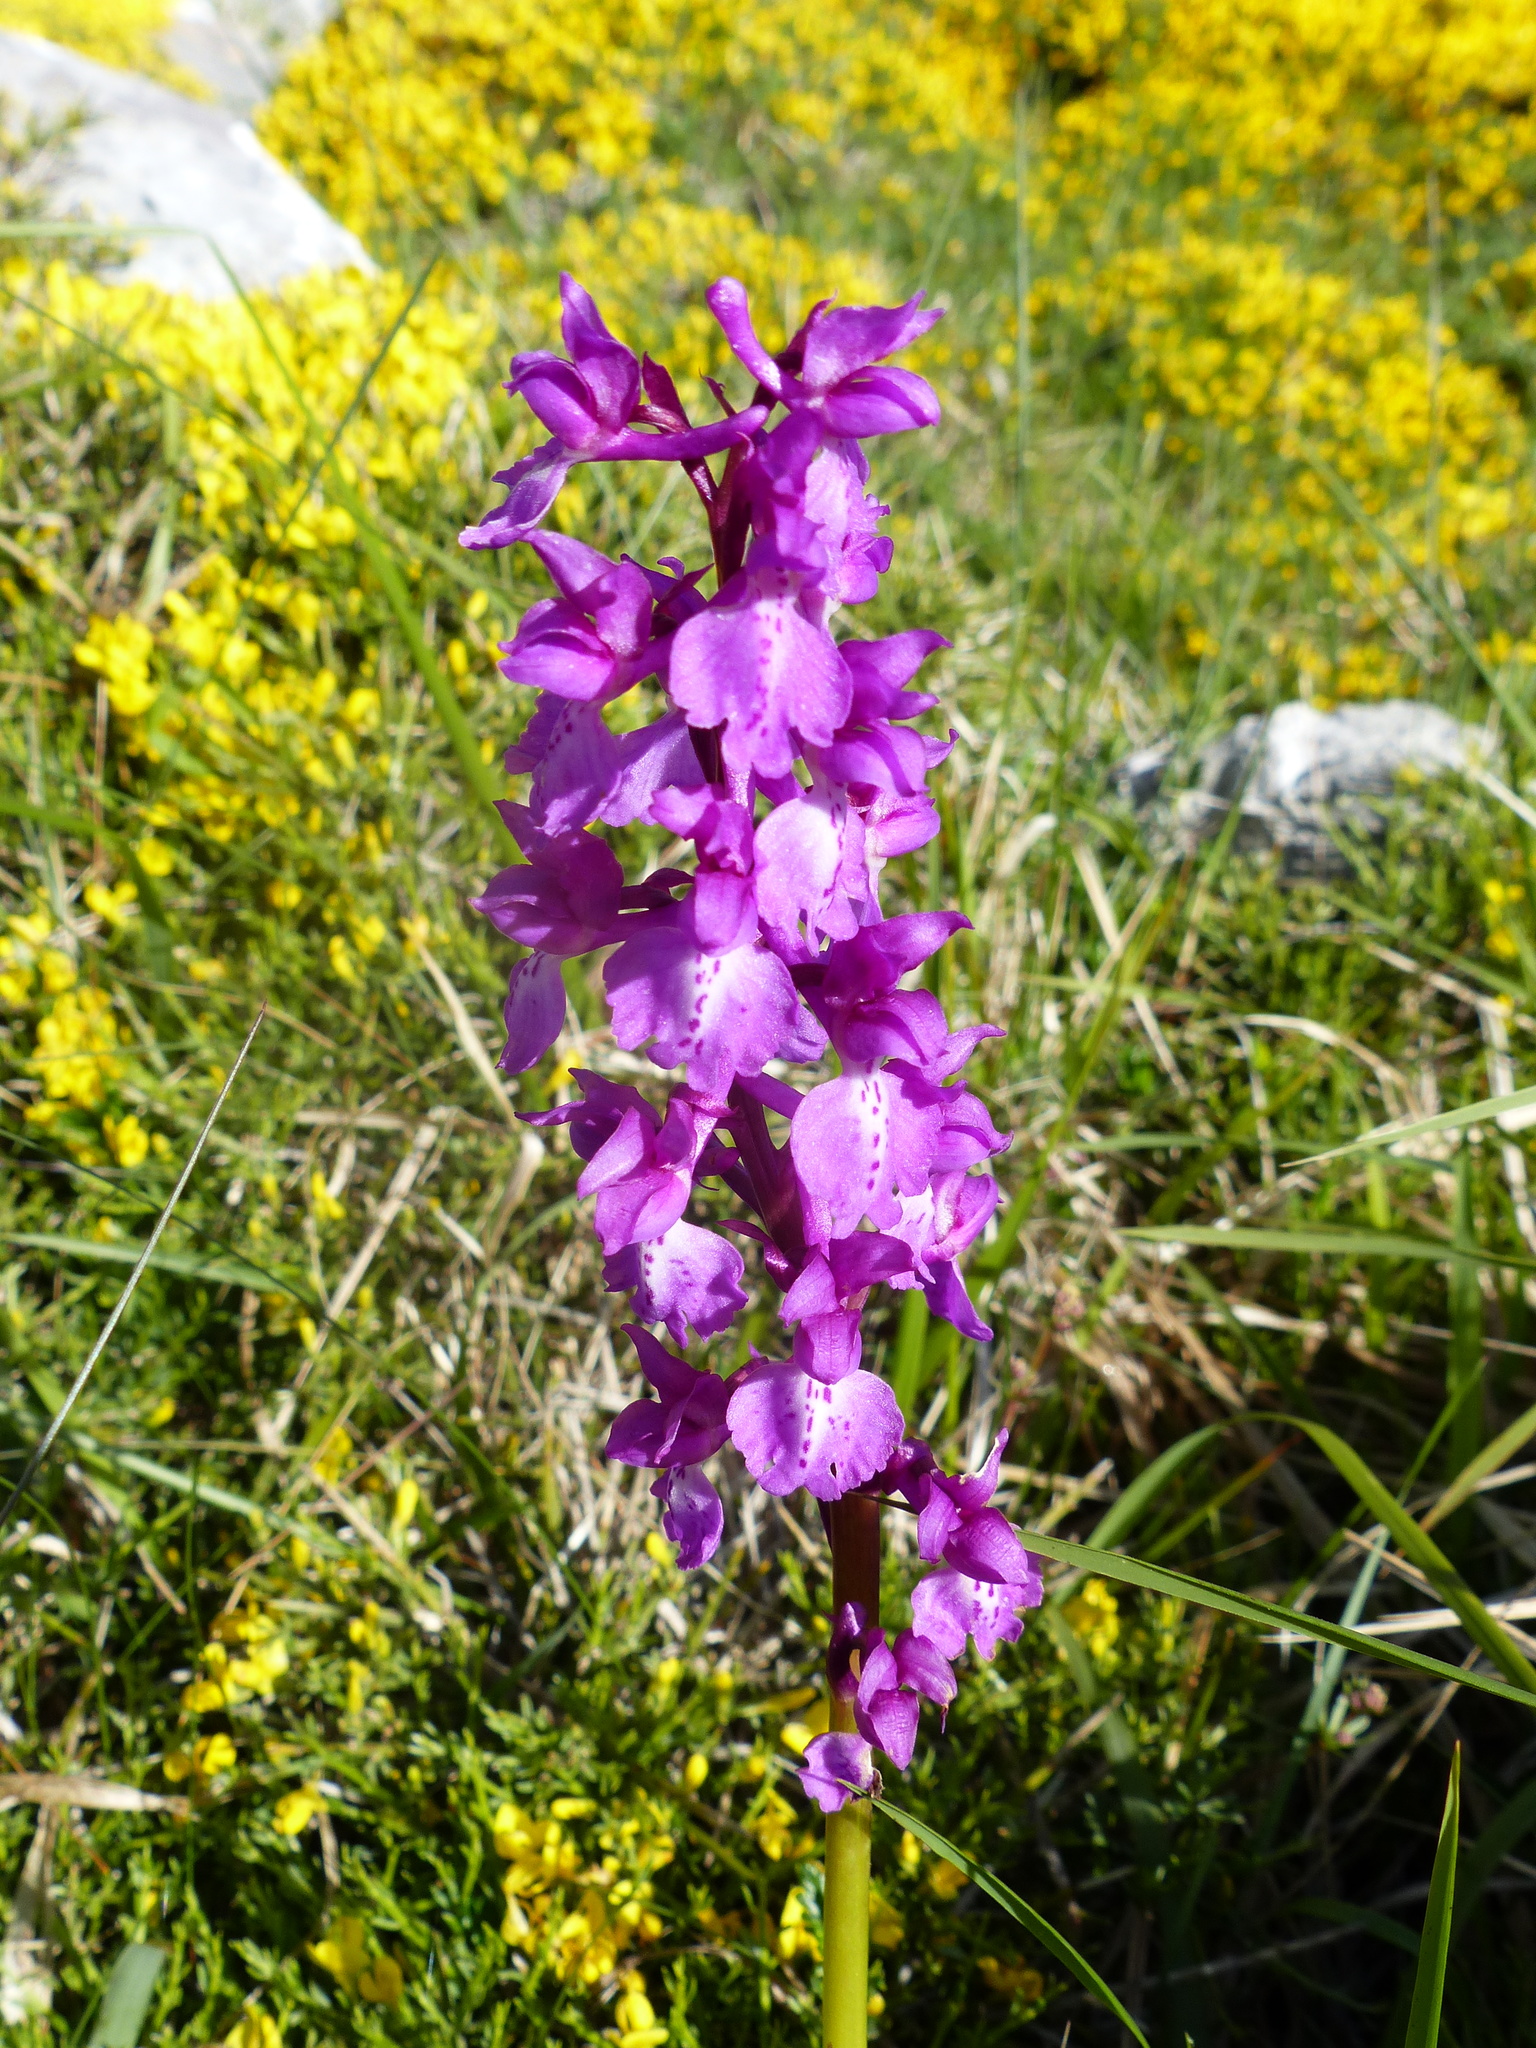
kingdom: Plantae
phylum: Tracheophyta
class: Liliopsida
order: Asparagales
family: Orchidaceae
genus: Orchis
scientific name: Orchis mascula
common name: Early-purple orchid
